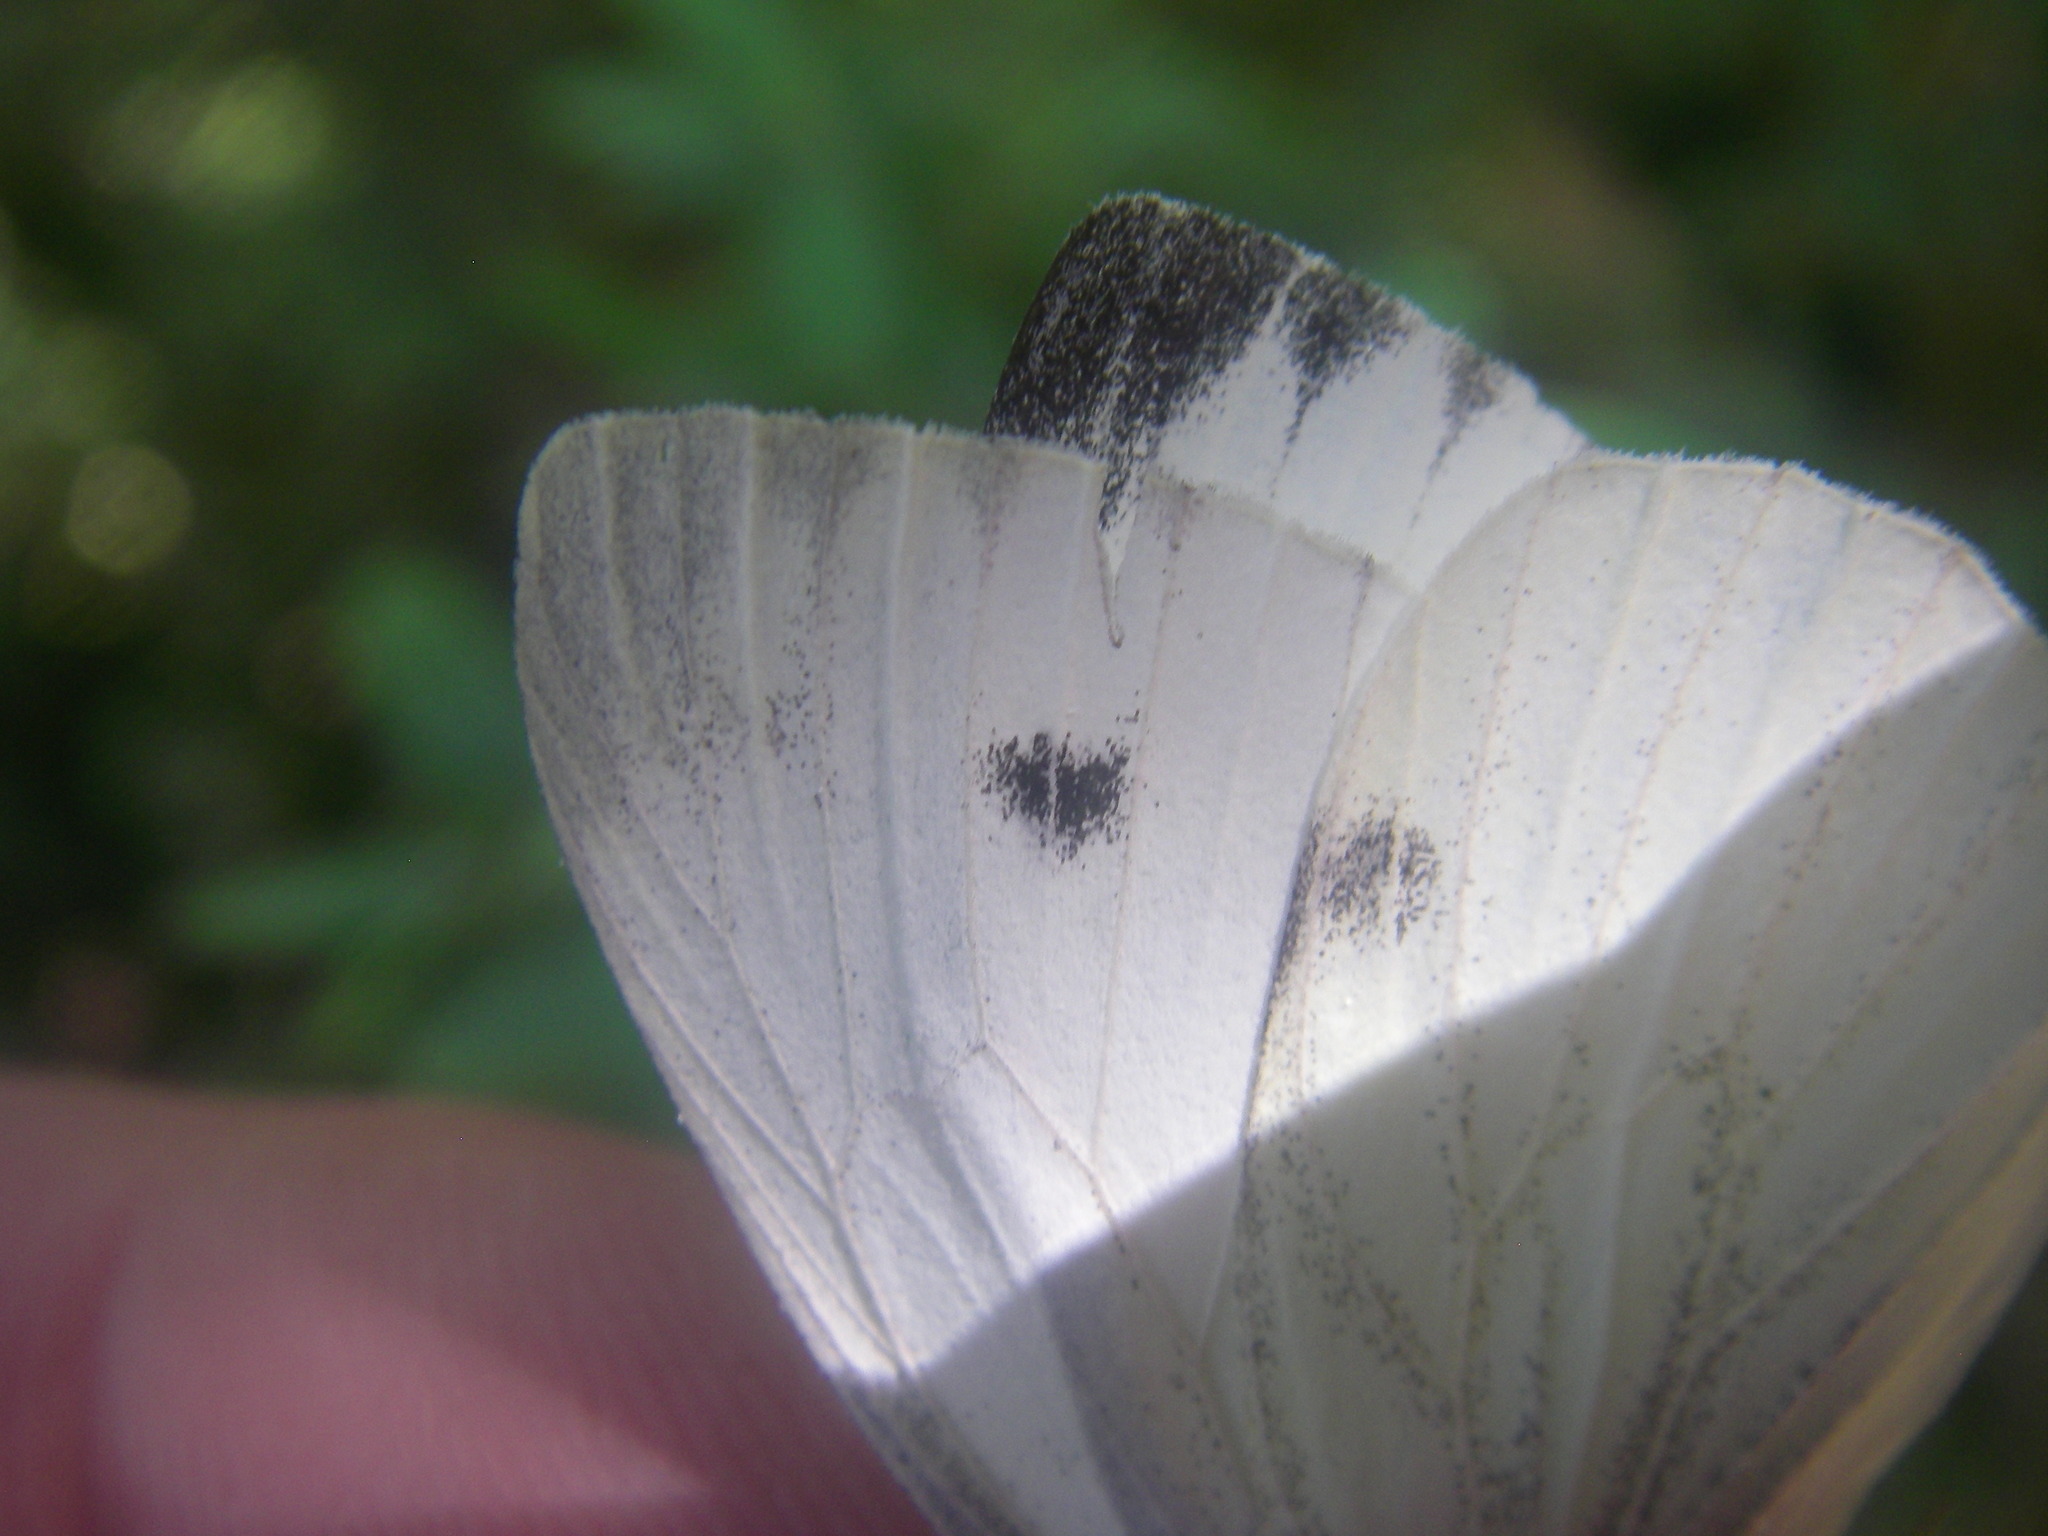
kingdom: Animalia
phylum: Arthropoda
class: Insecta
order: Lepidoptera
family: Pieridae
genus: Pieris
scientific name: Pieris napi
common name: Green-veined white
